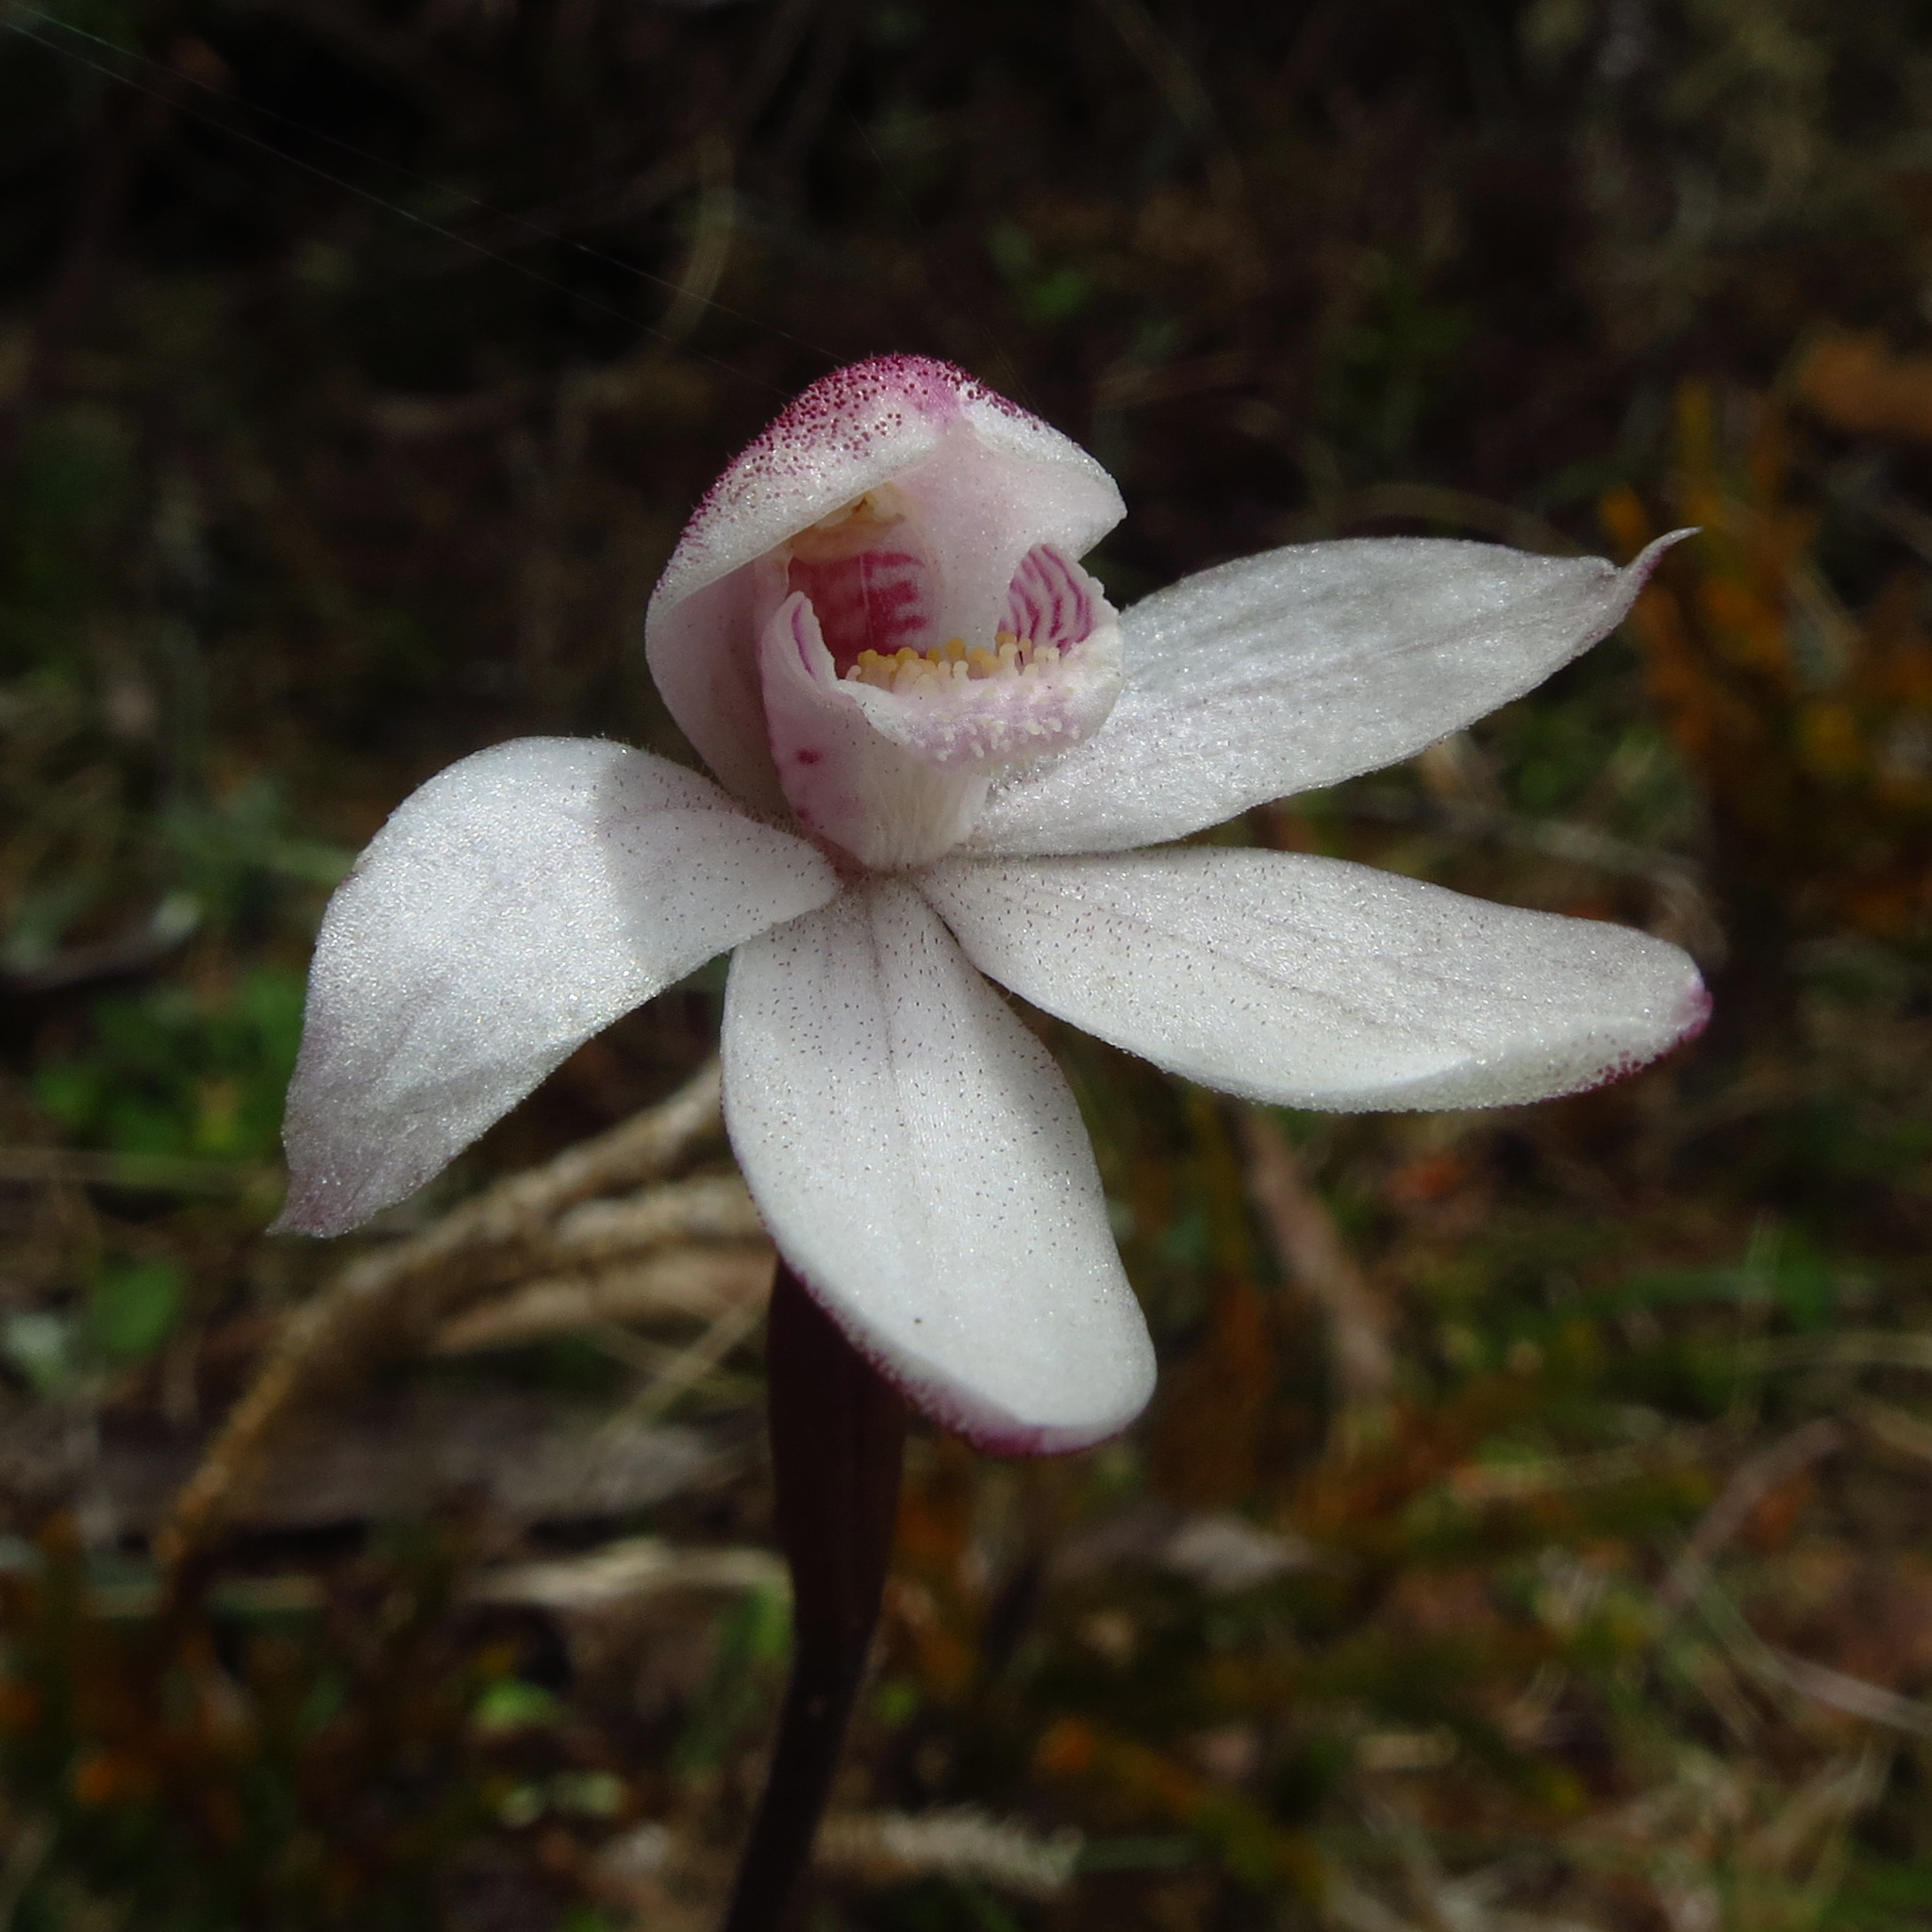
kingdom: Plantae
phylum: Tracheophyta
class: Liliopsida
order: Asparagales
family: Orchidaceae
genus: Caladenia
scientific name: Caladenia alpina
